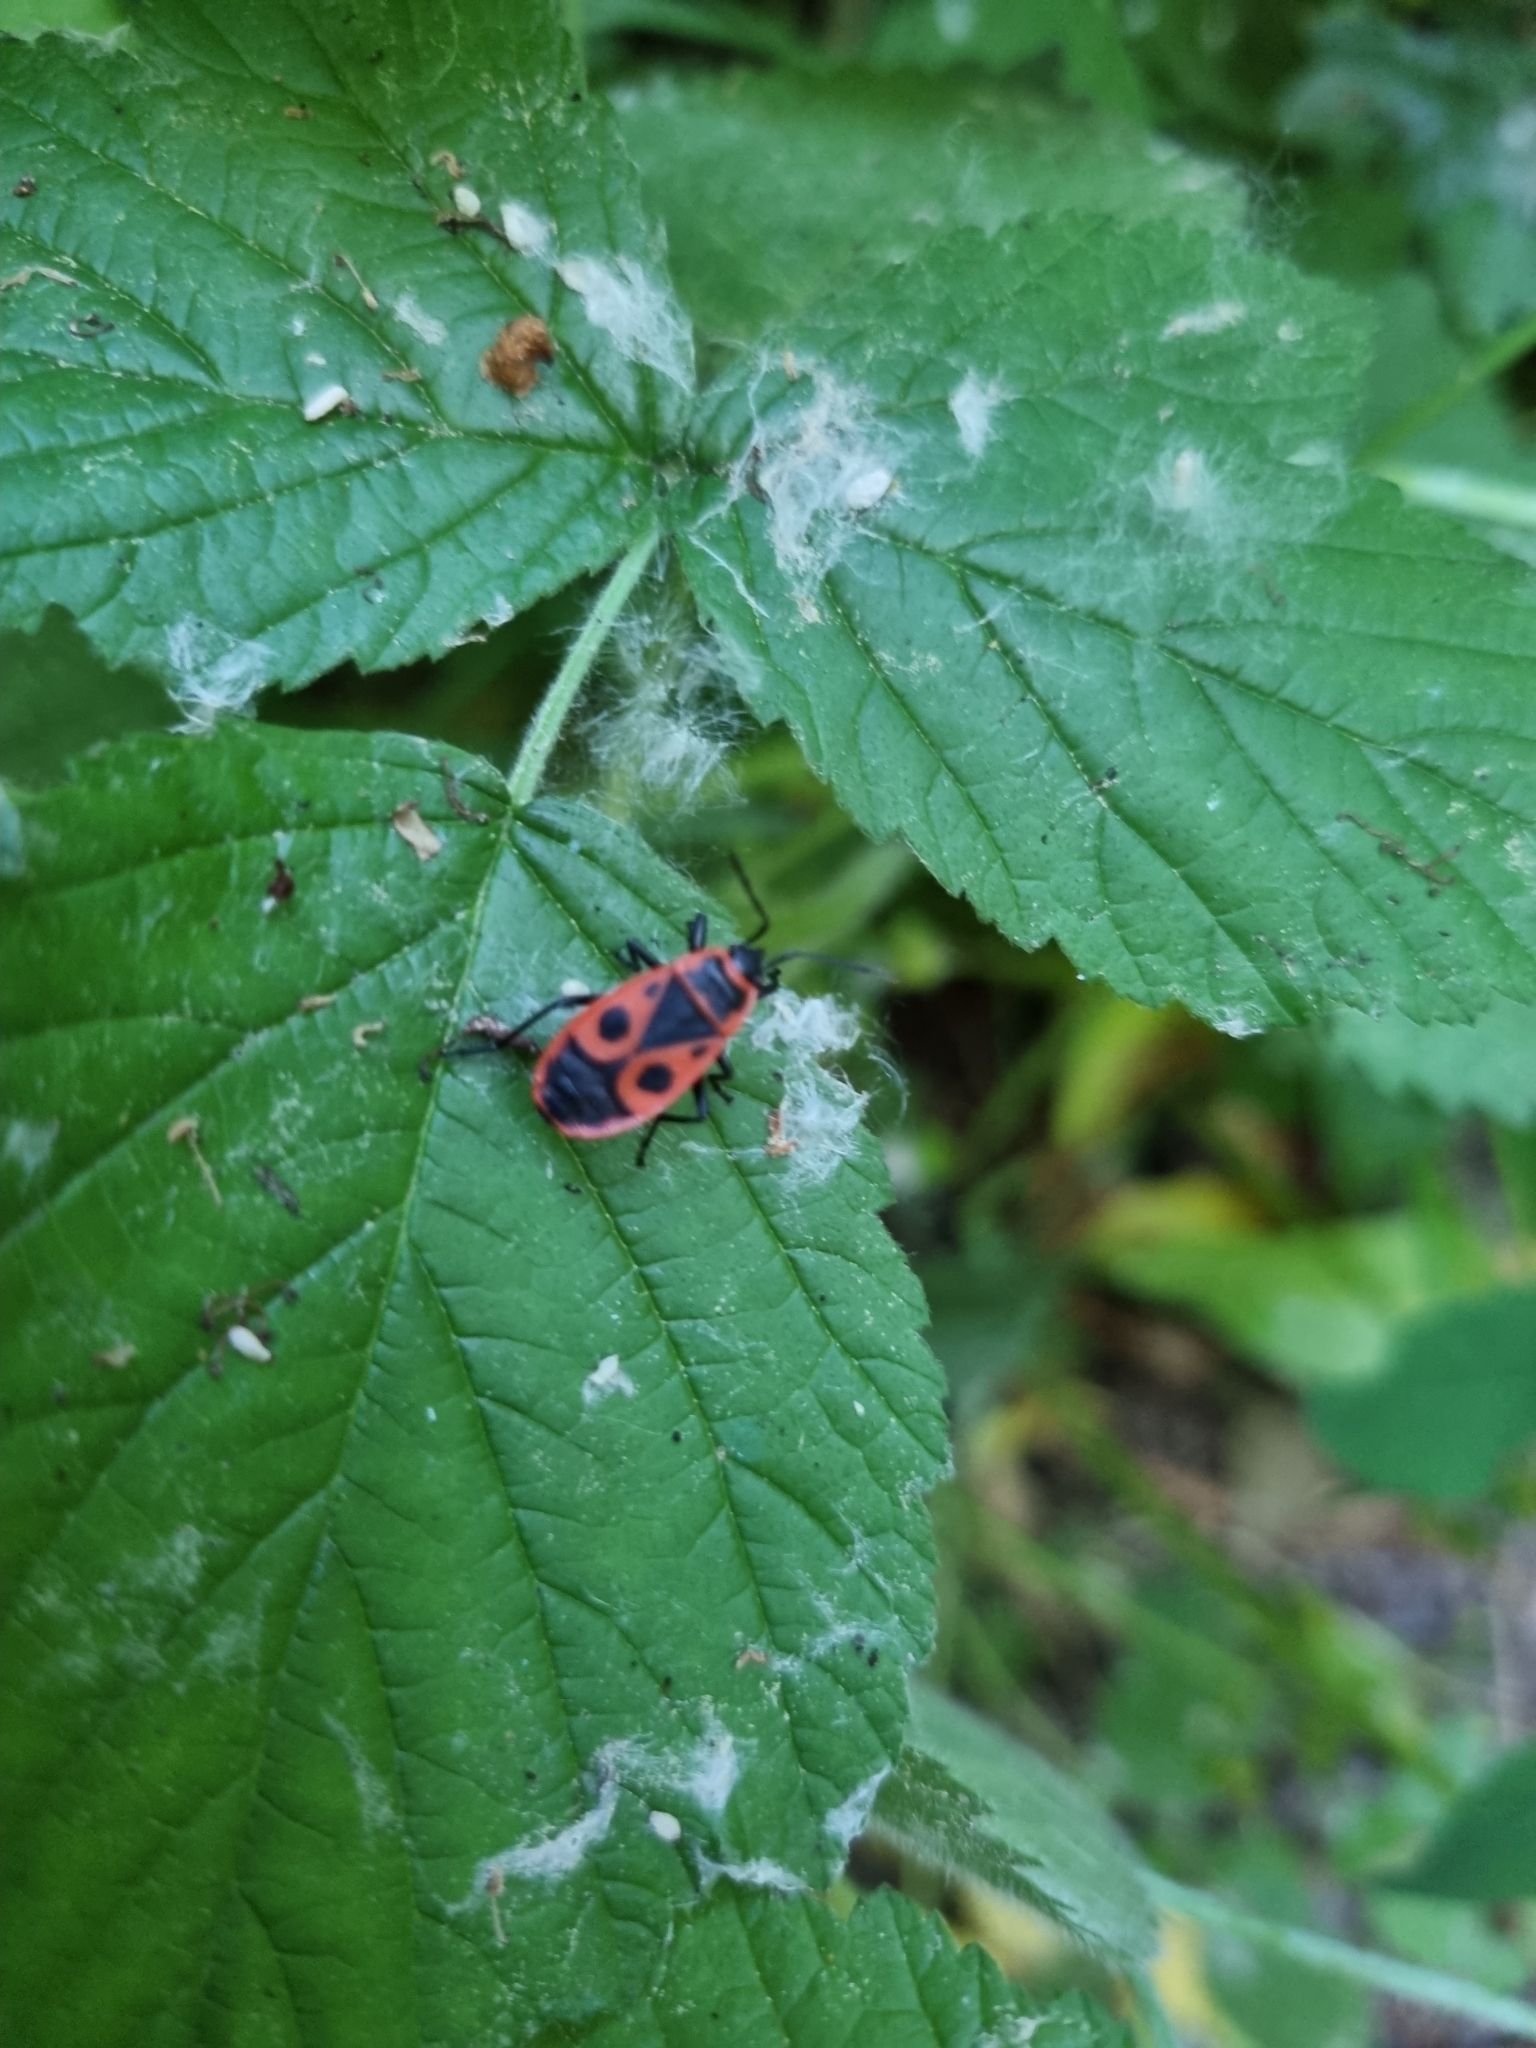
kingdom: Animalia
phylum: Arthropoda
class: Insecta
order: Hemiptera
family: Pyrrhocoridae
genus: Pyrrhocoris
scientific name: Pyrrhocoris apterus
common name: Firebug
